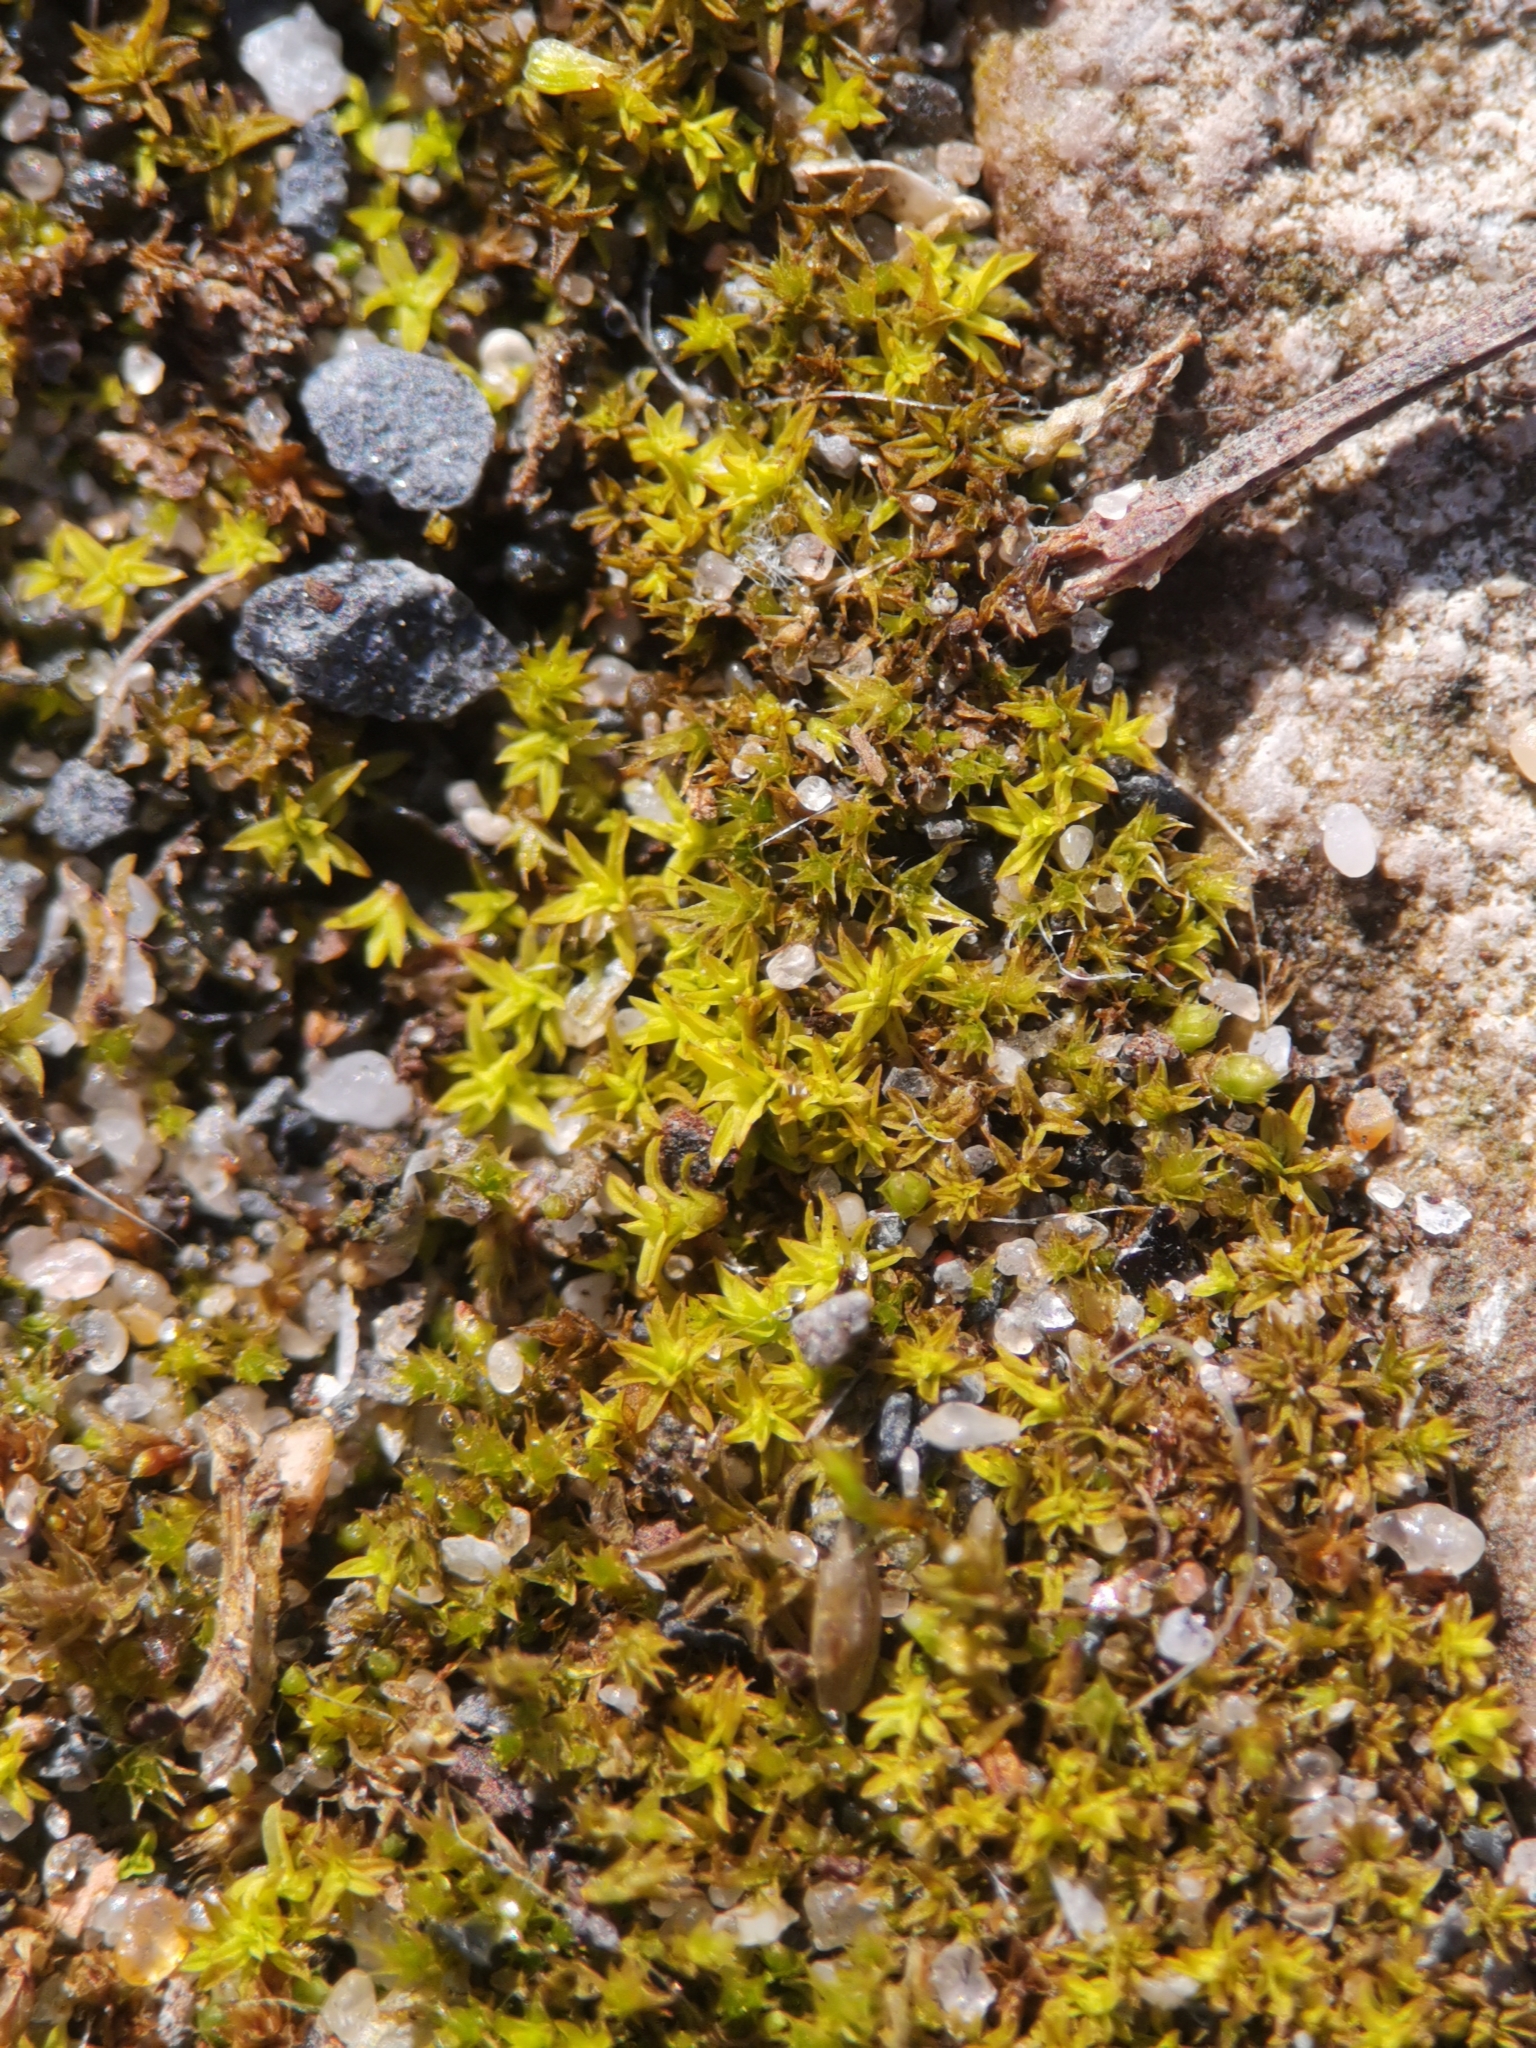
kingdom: Plantae
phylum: Bryophyta
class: Bryopsida
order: Pottiales
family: Pottiaceae
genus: Barbula
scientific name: Barbula unguiculata
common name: Prickly beard moss
